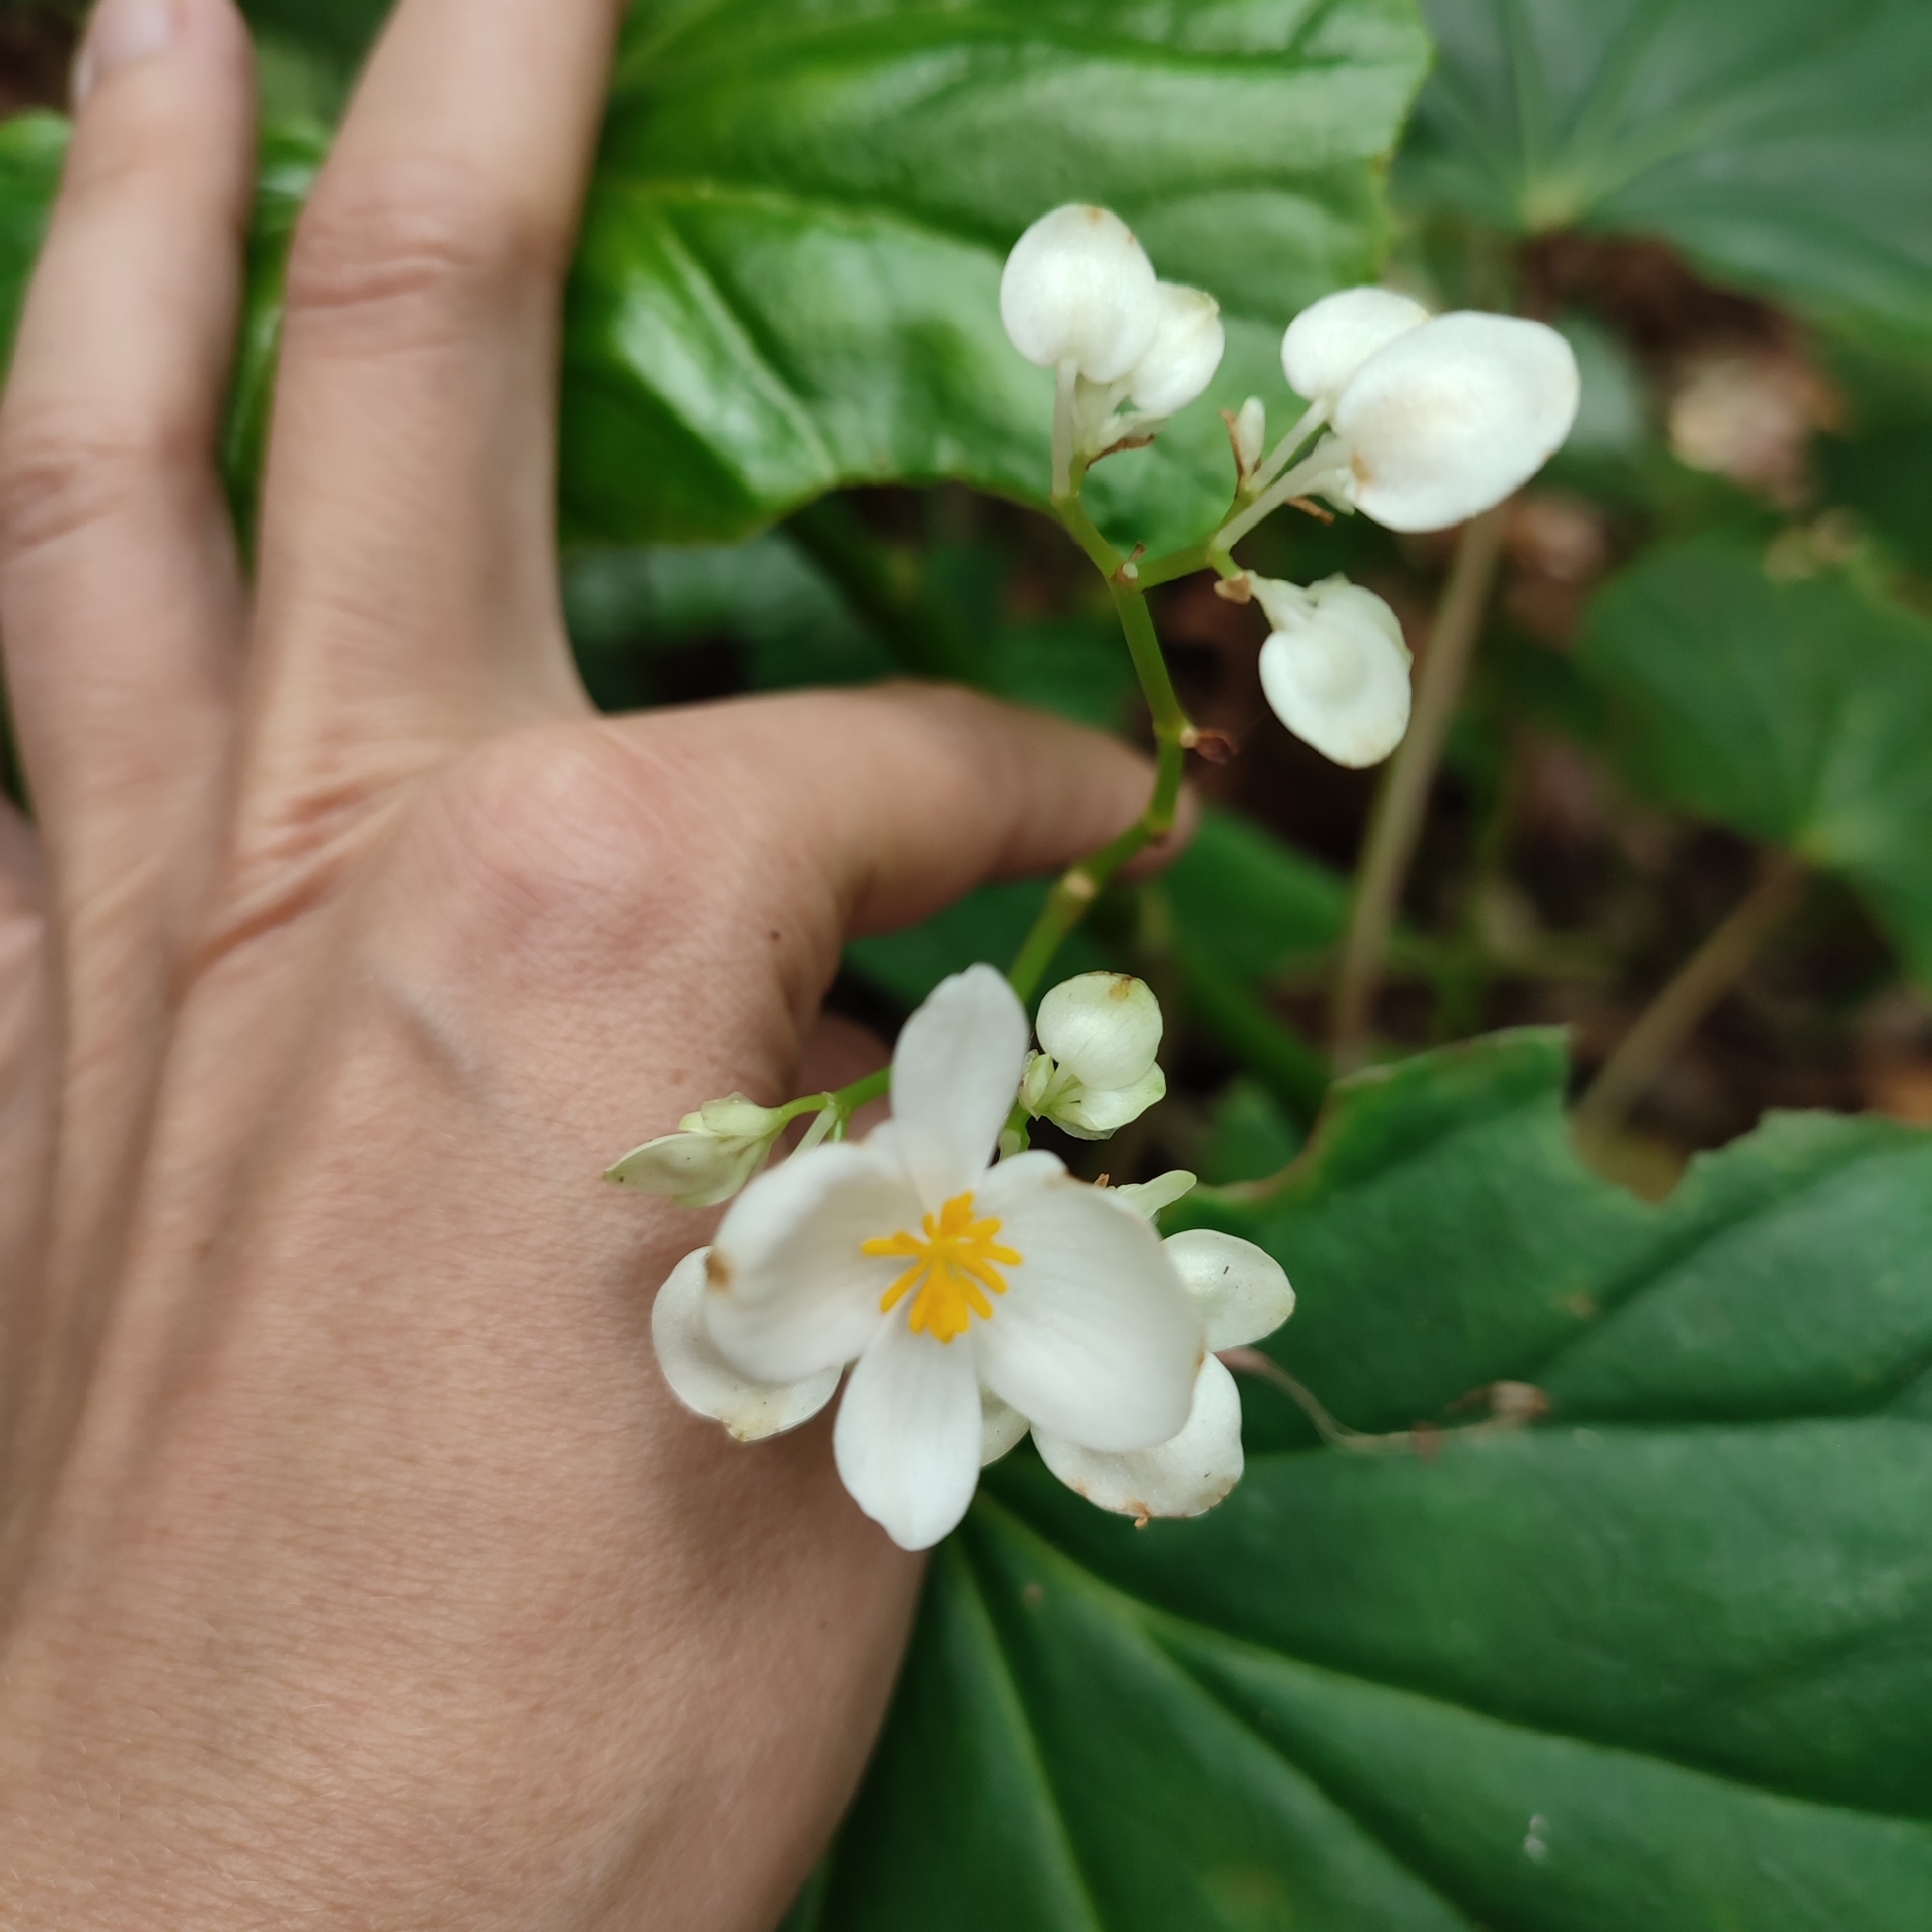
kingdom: Plantae
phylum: Tracheophyta
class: Magnoliopsida
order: Cucurbitales
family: Begoniaceae
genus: Begonia
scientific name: Begonia retusa
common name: Begonia
